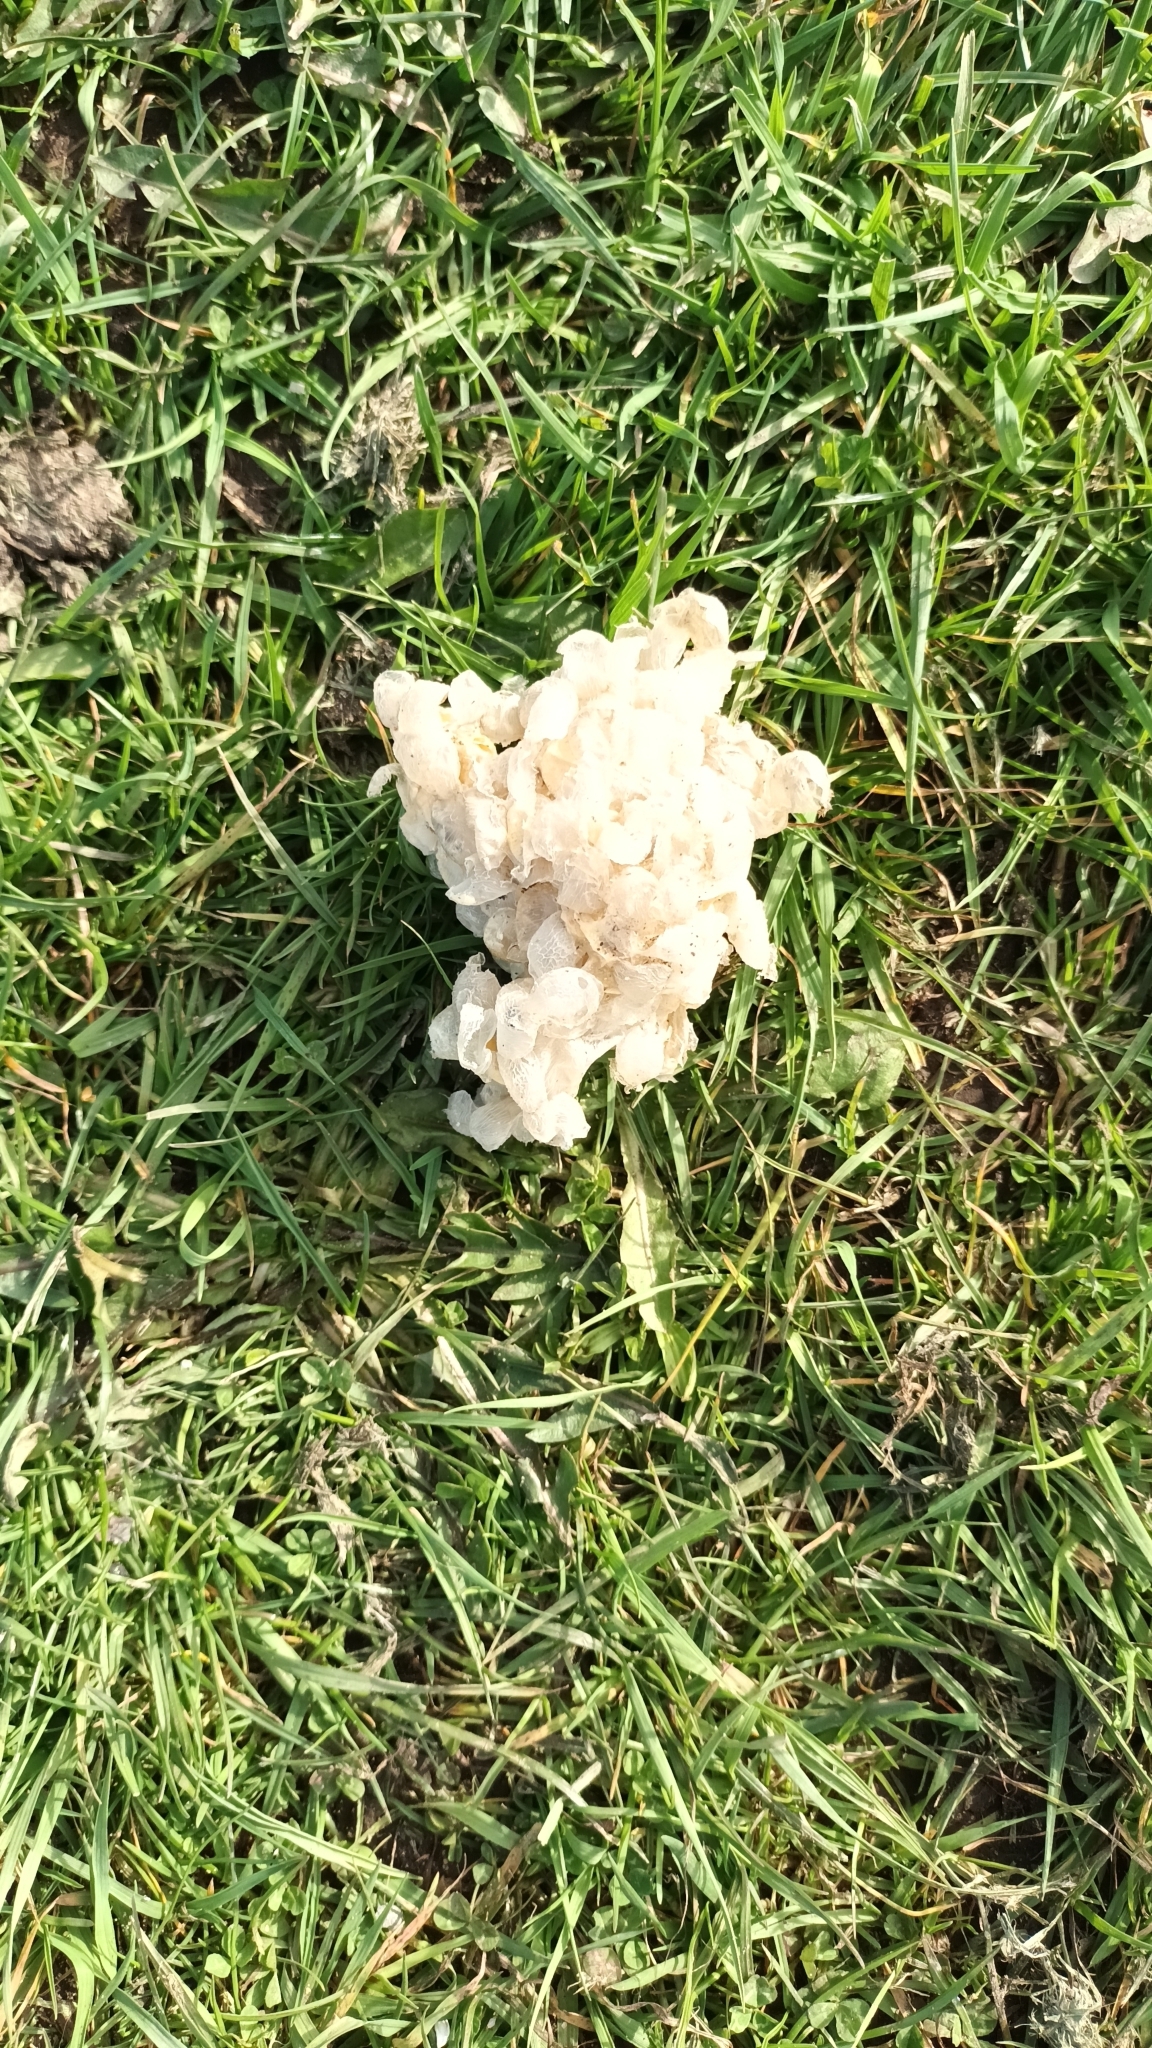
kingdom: Animalia
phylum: Mollusca
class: Gastropoda
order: Neogastropoda
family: Buccinidae
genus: Buccinum
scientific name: Buccinum undatum
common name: Common whelk
